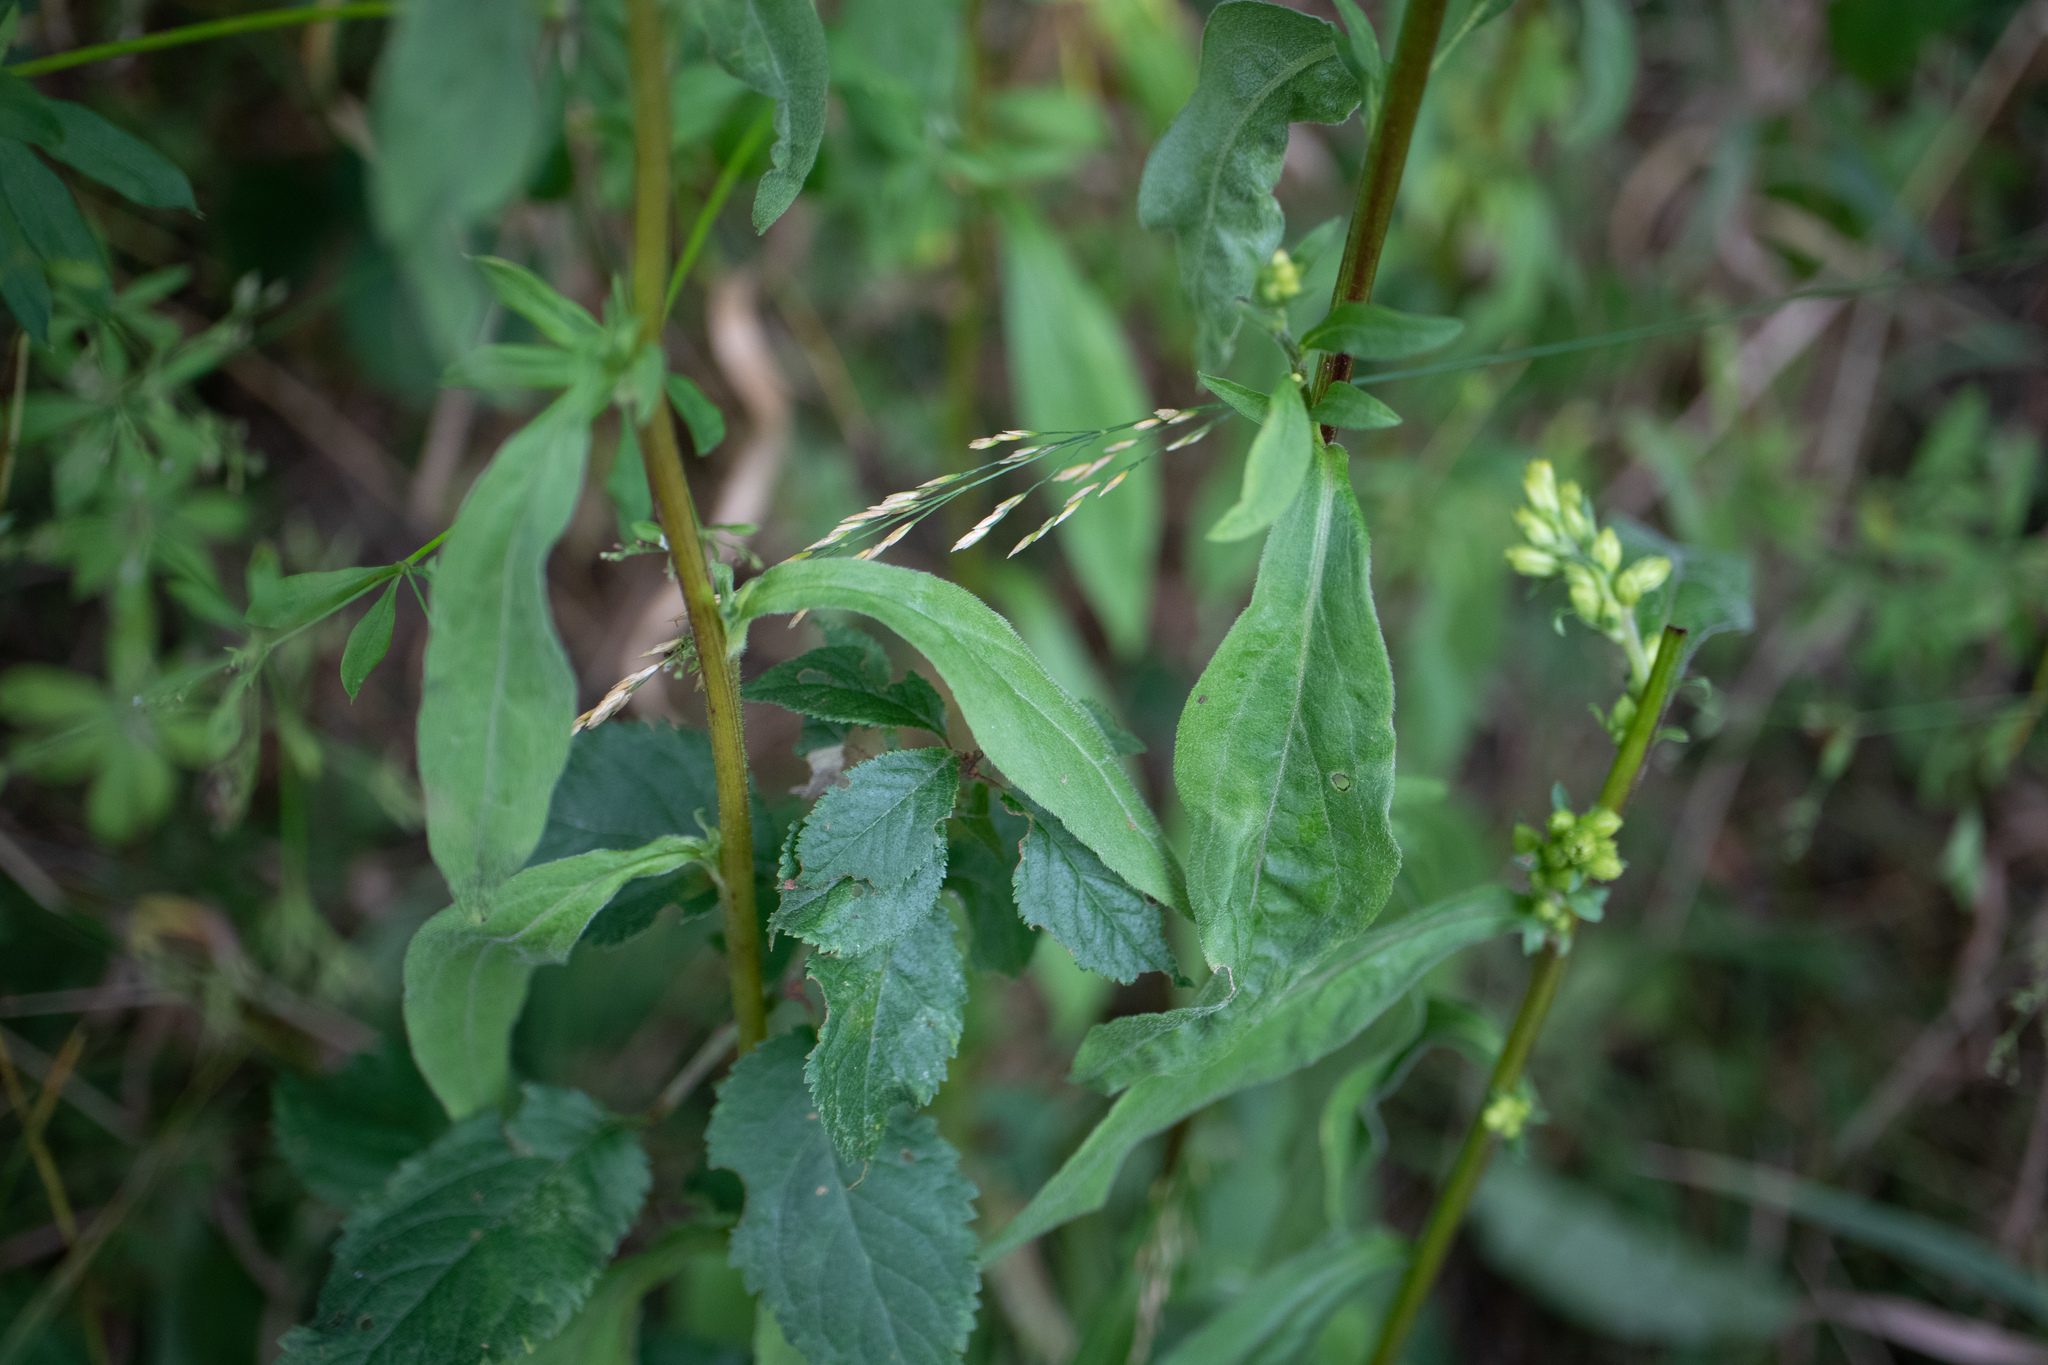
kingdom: Plantae
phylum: Tracheophyta
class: Magnoliopsida
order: Asterales
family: Campanulaceae
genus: Campanula
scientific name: Campanula glomerata
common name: Clustered bellflower
